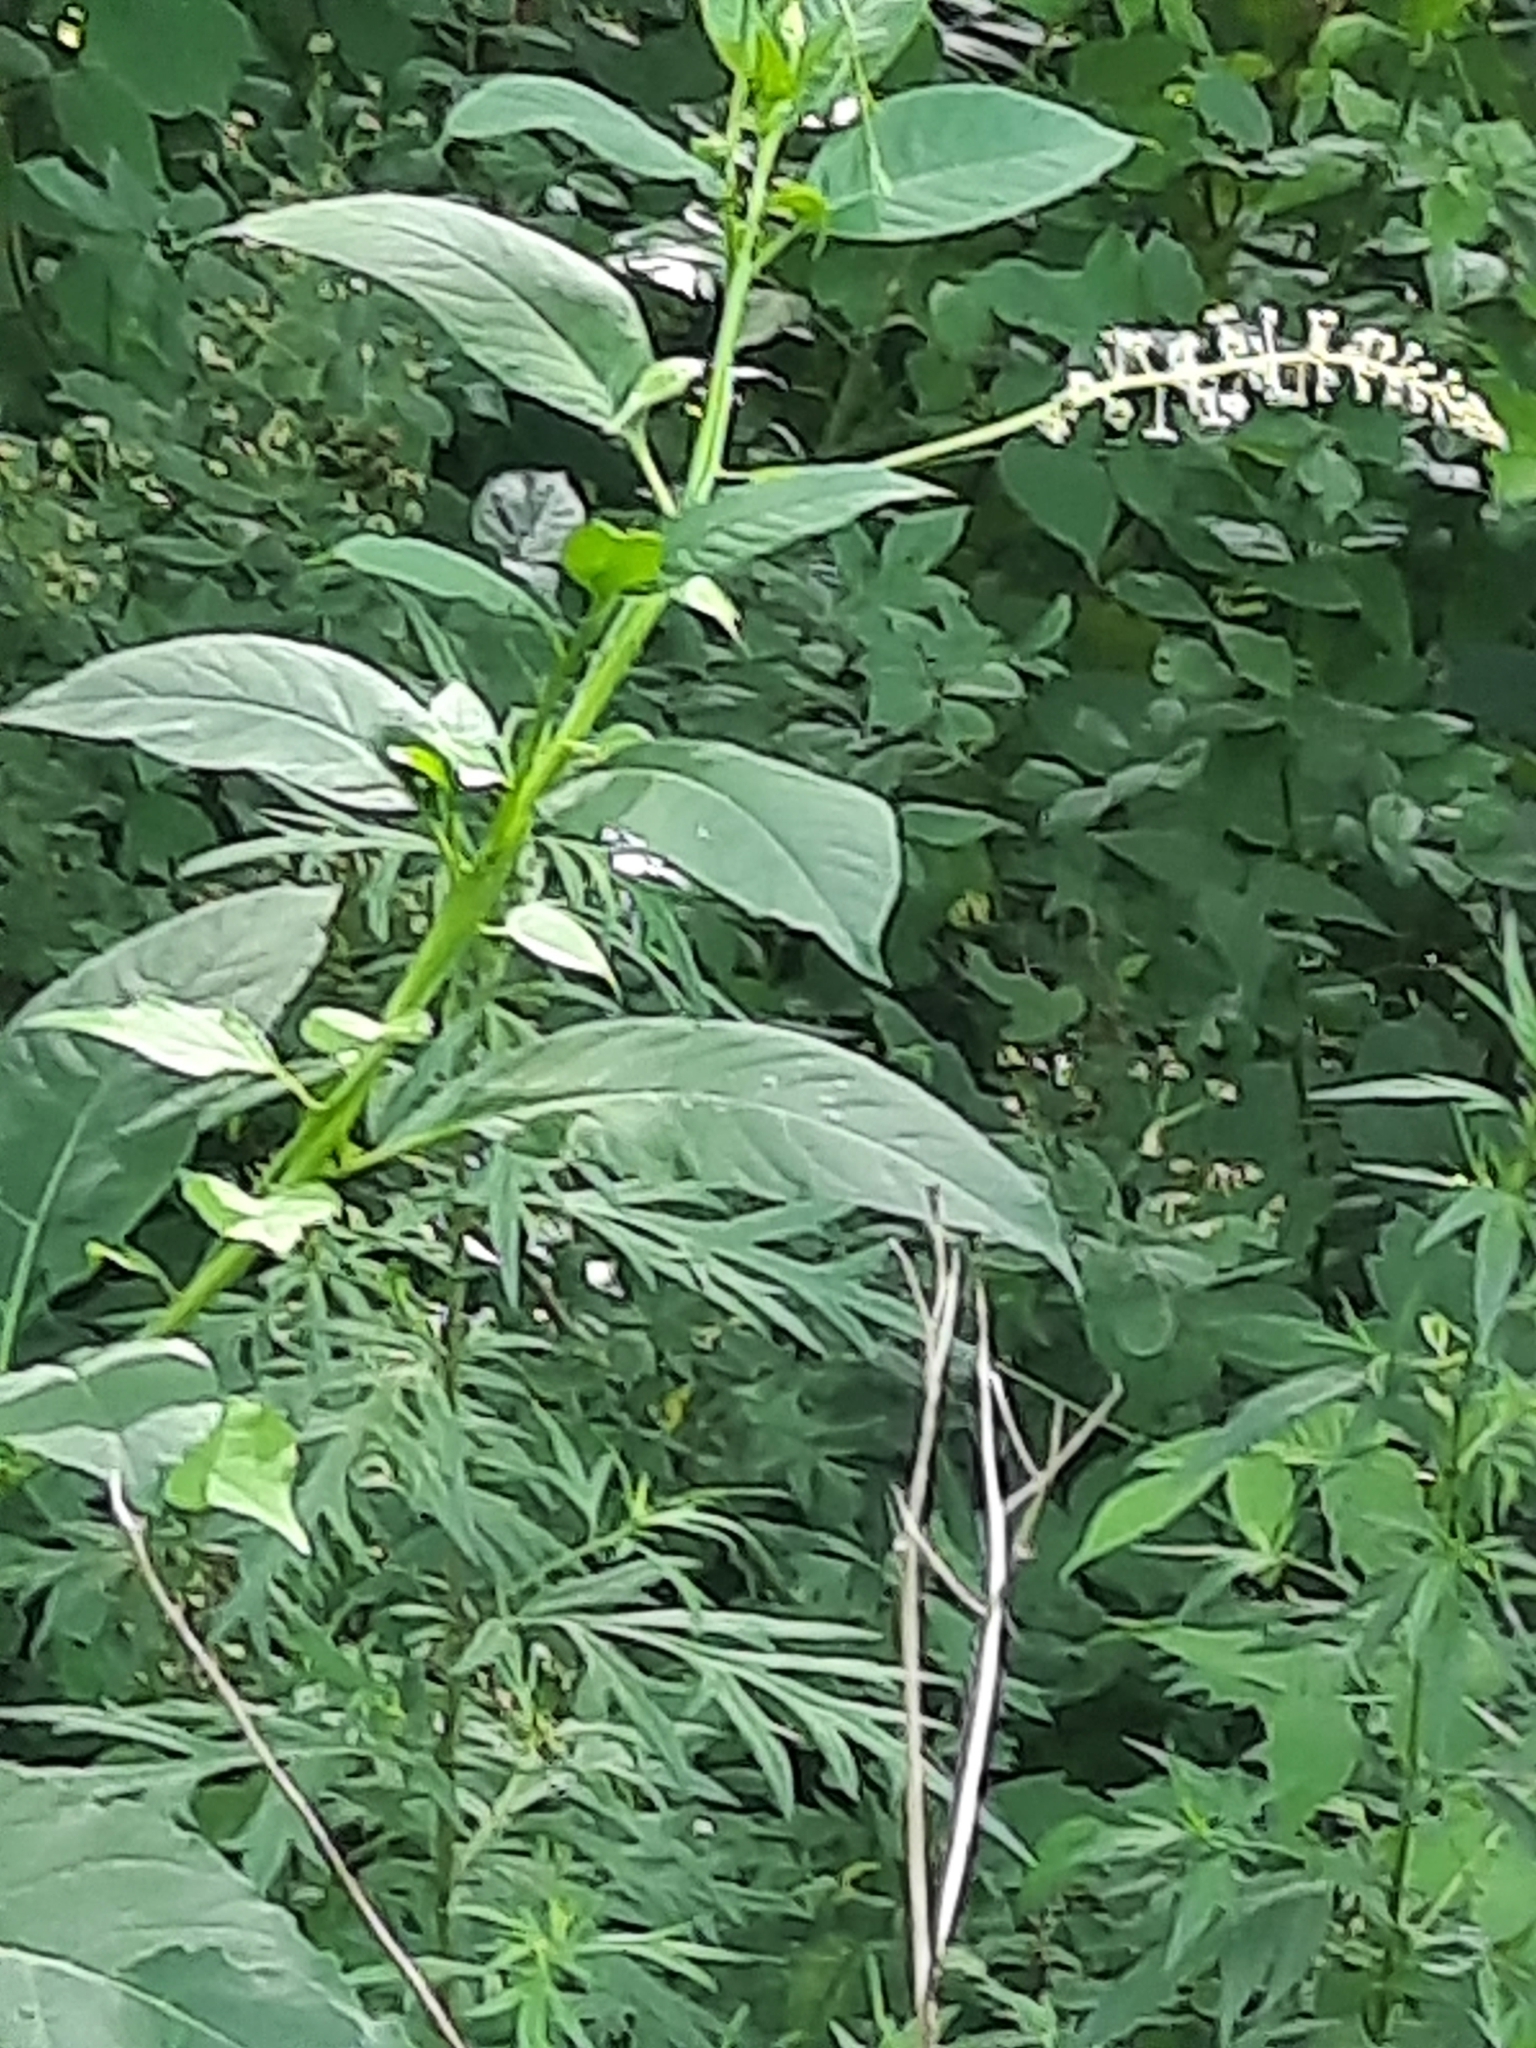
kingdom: Plantae
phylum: Tracheophyta
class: Magnoliopsida
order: Caryophyllales
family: Phytolaccaceae
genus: Phytolacca
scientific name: Phytolacca americana
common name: American pokeweed
